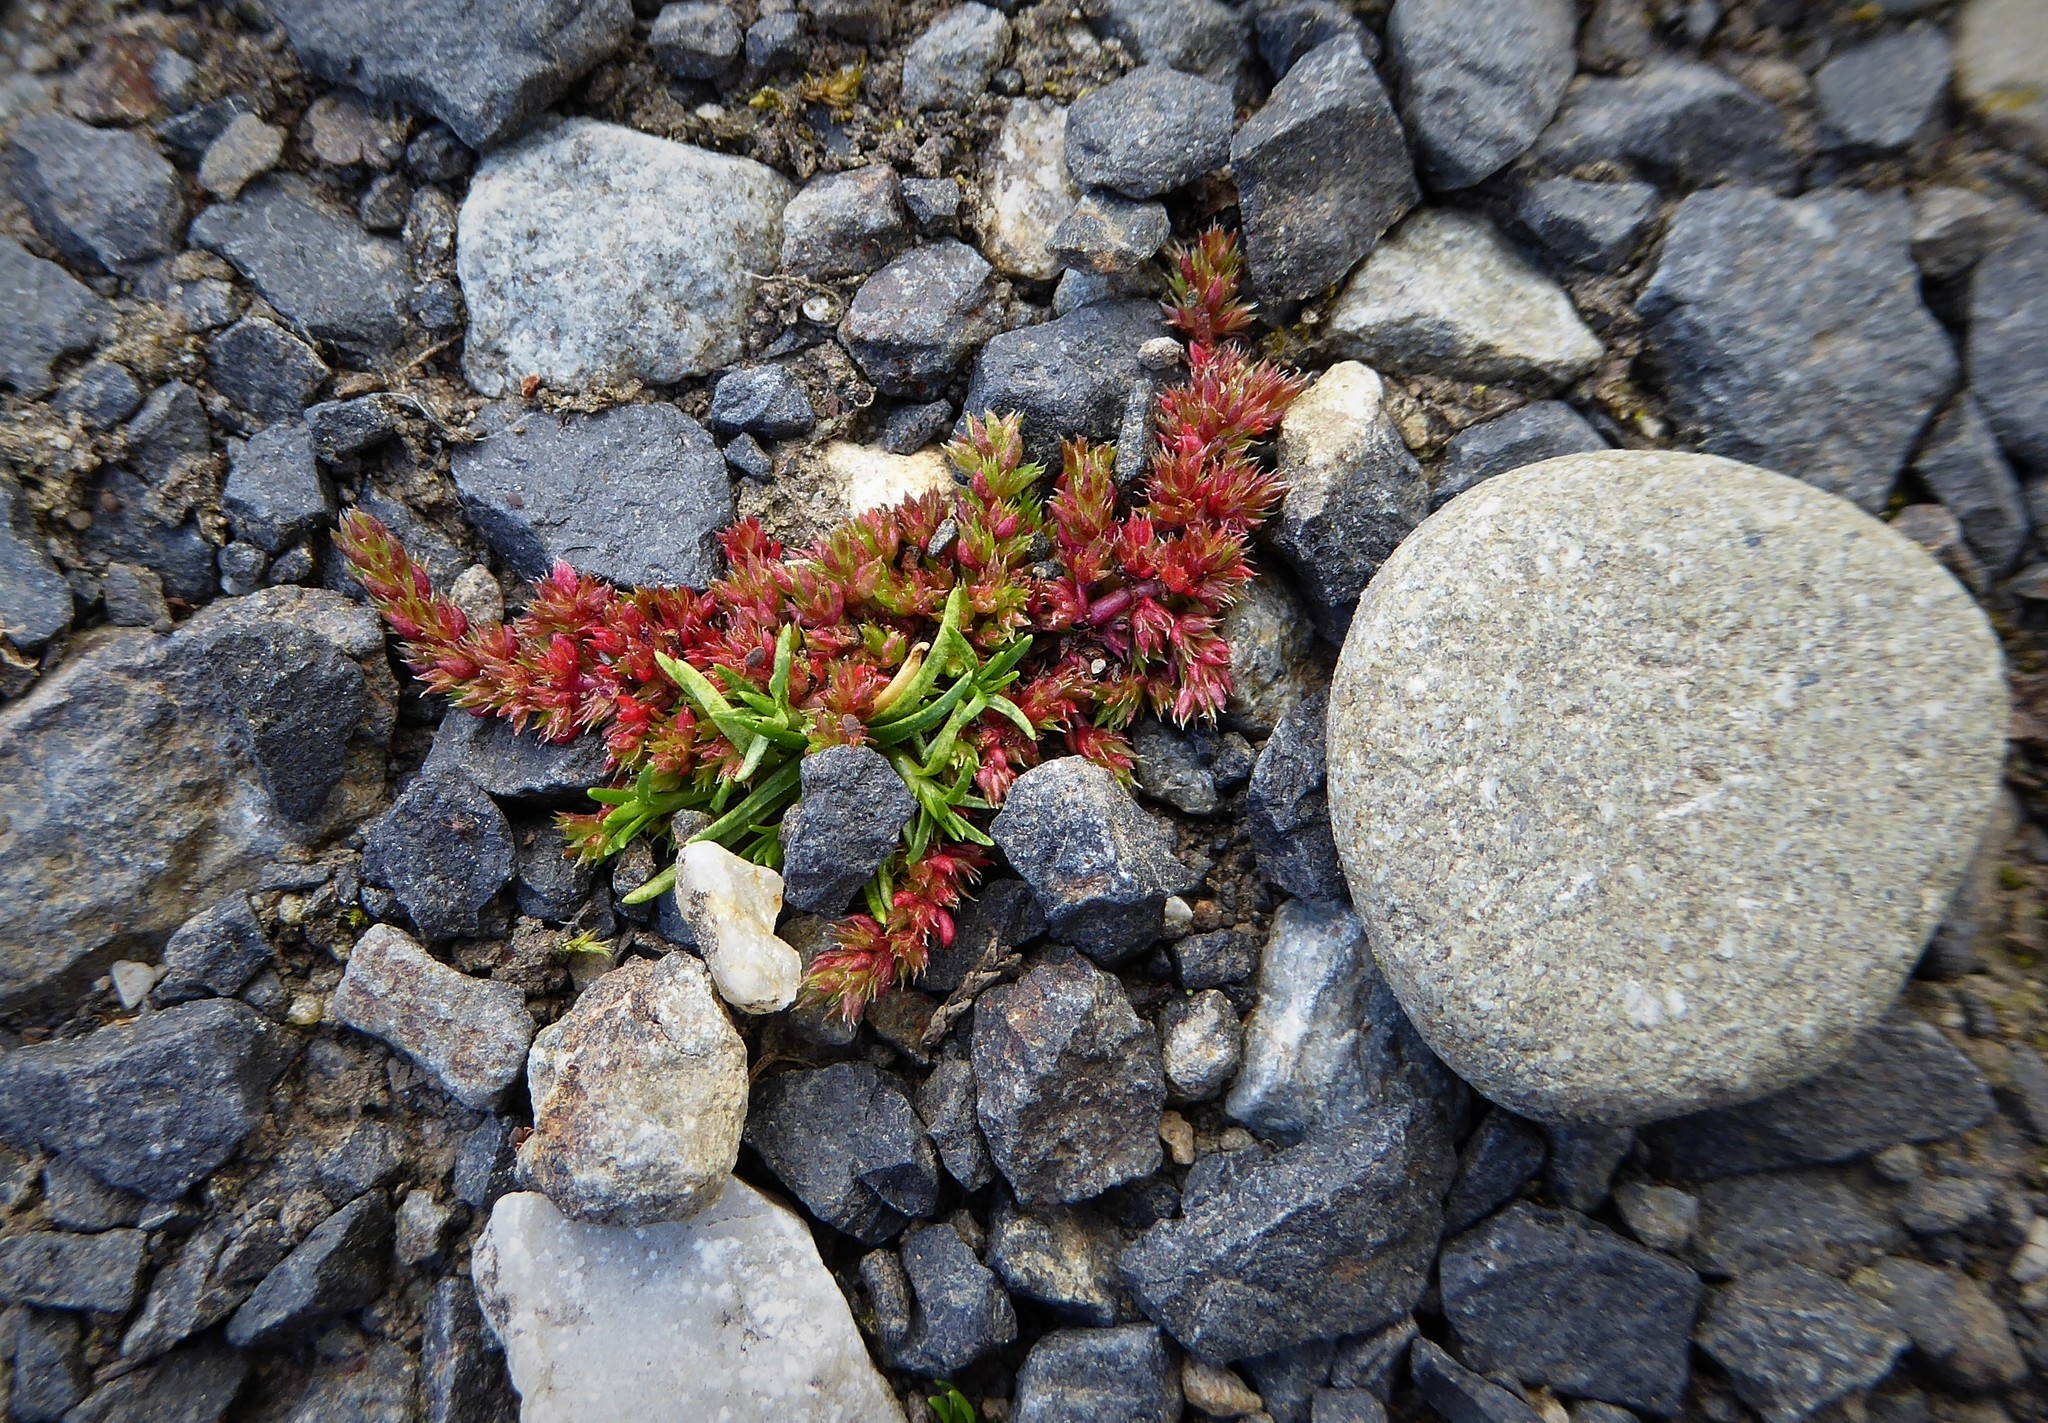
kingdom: Plantae
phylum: Tracheophyta
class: Magnoliopsida
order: Saxifragales
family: Crassulaceae
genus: Crassula
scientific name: Crassula alata
